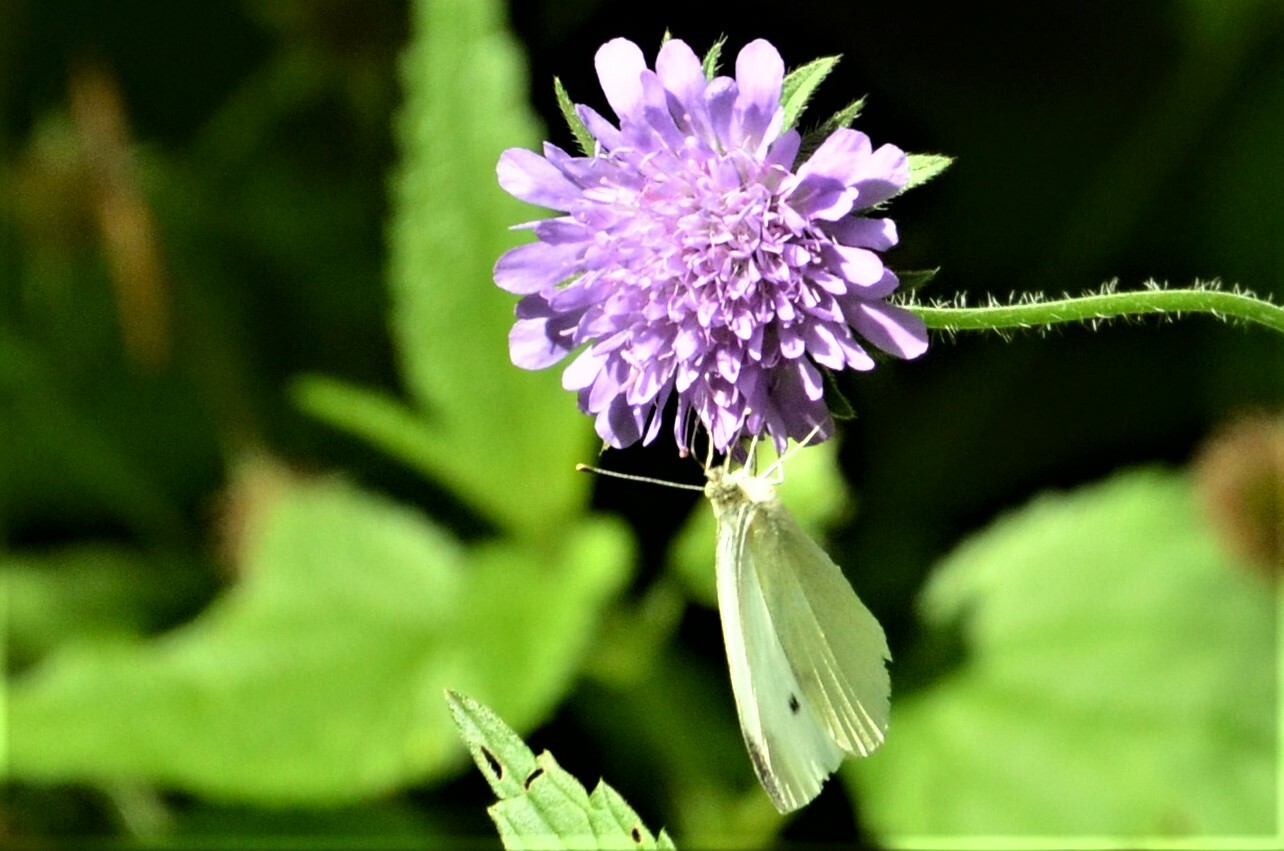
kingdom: Animalia
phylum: Arthropoda
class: Insecta
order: Lepidoptera
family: Pieridae
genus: Pieris
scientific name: Pieris rapae
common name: Small white
